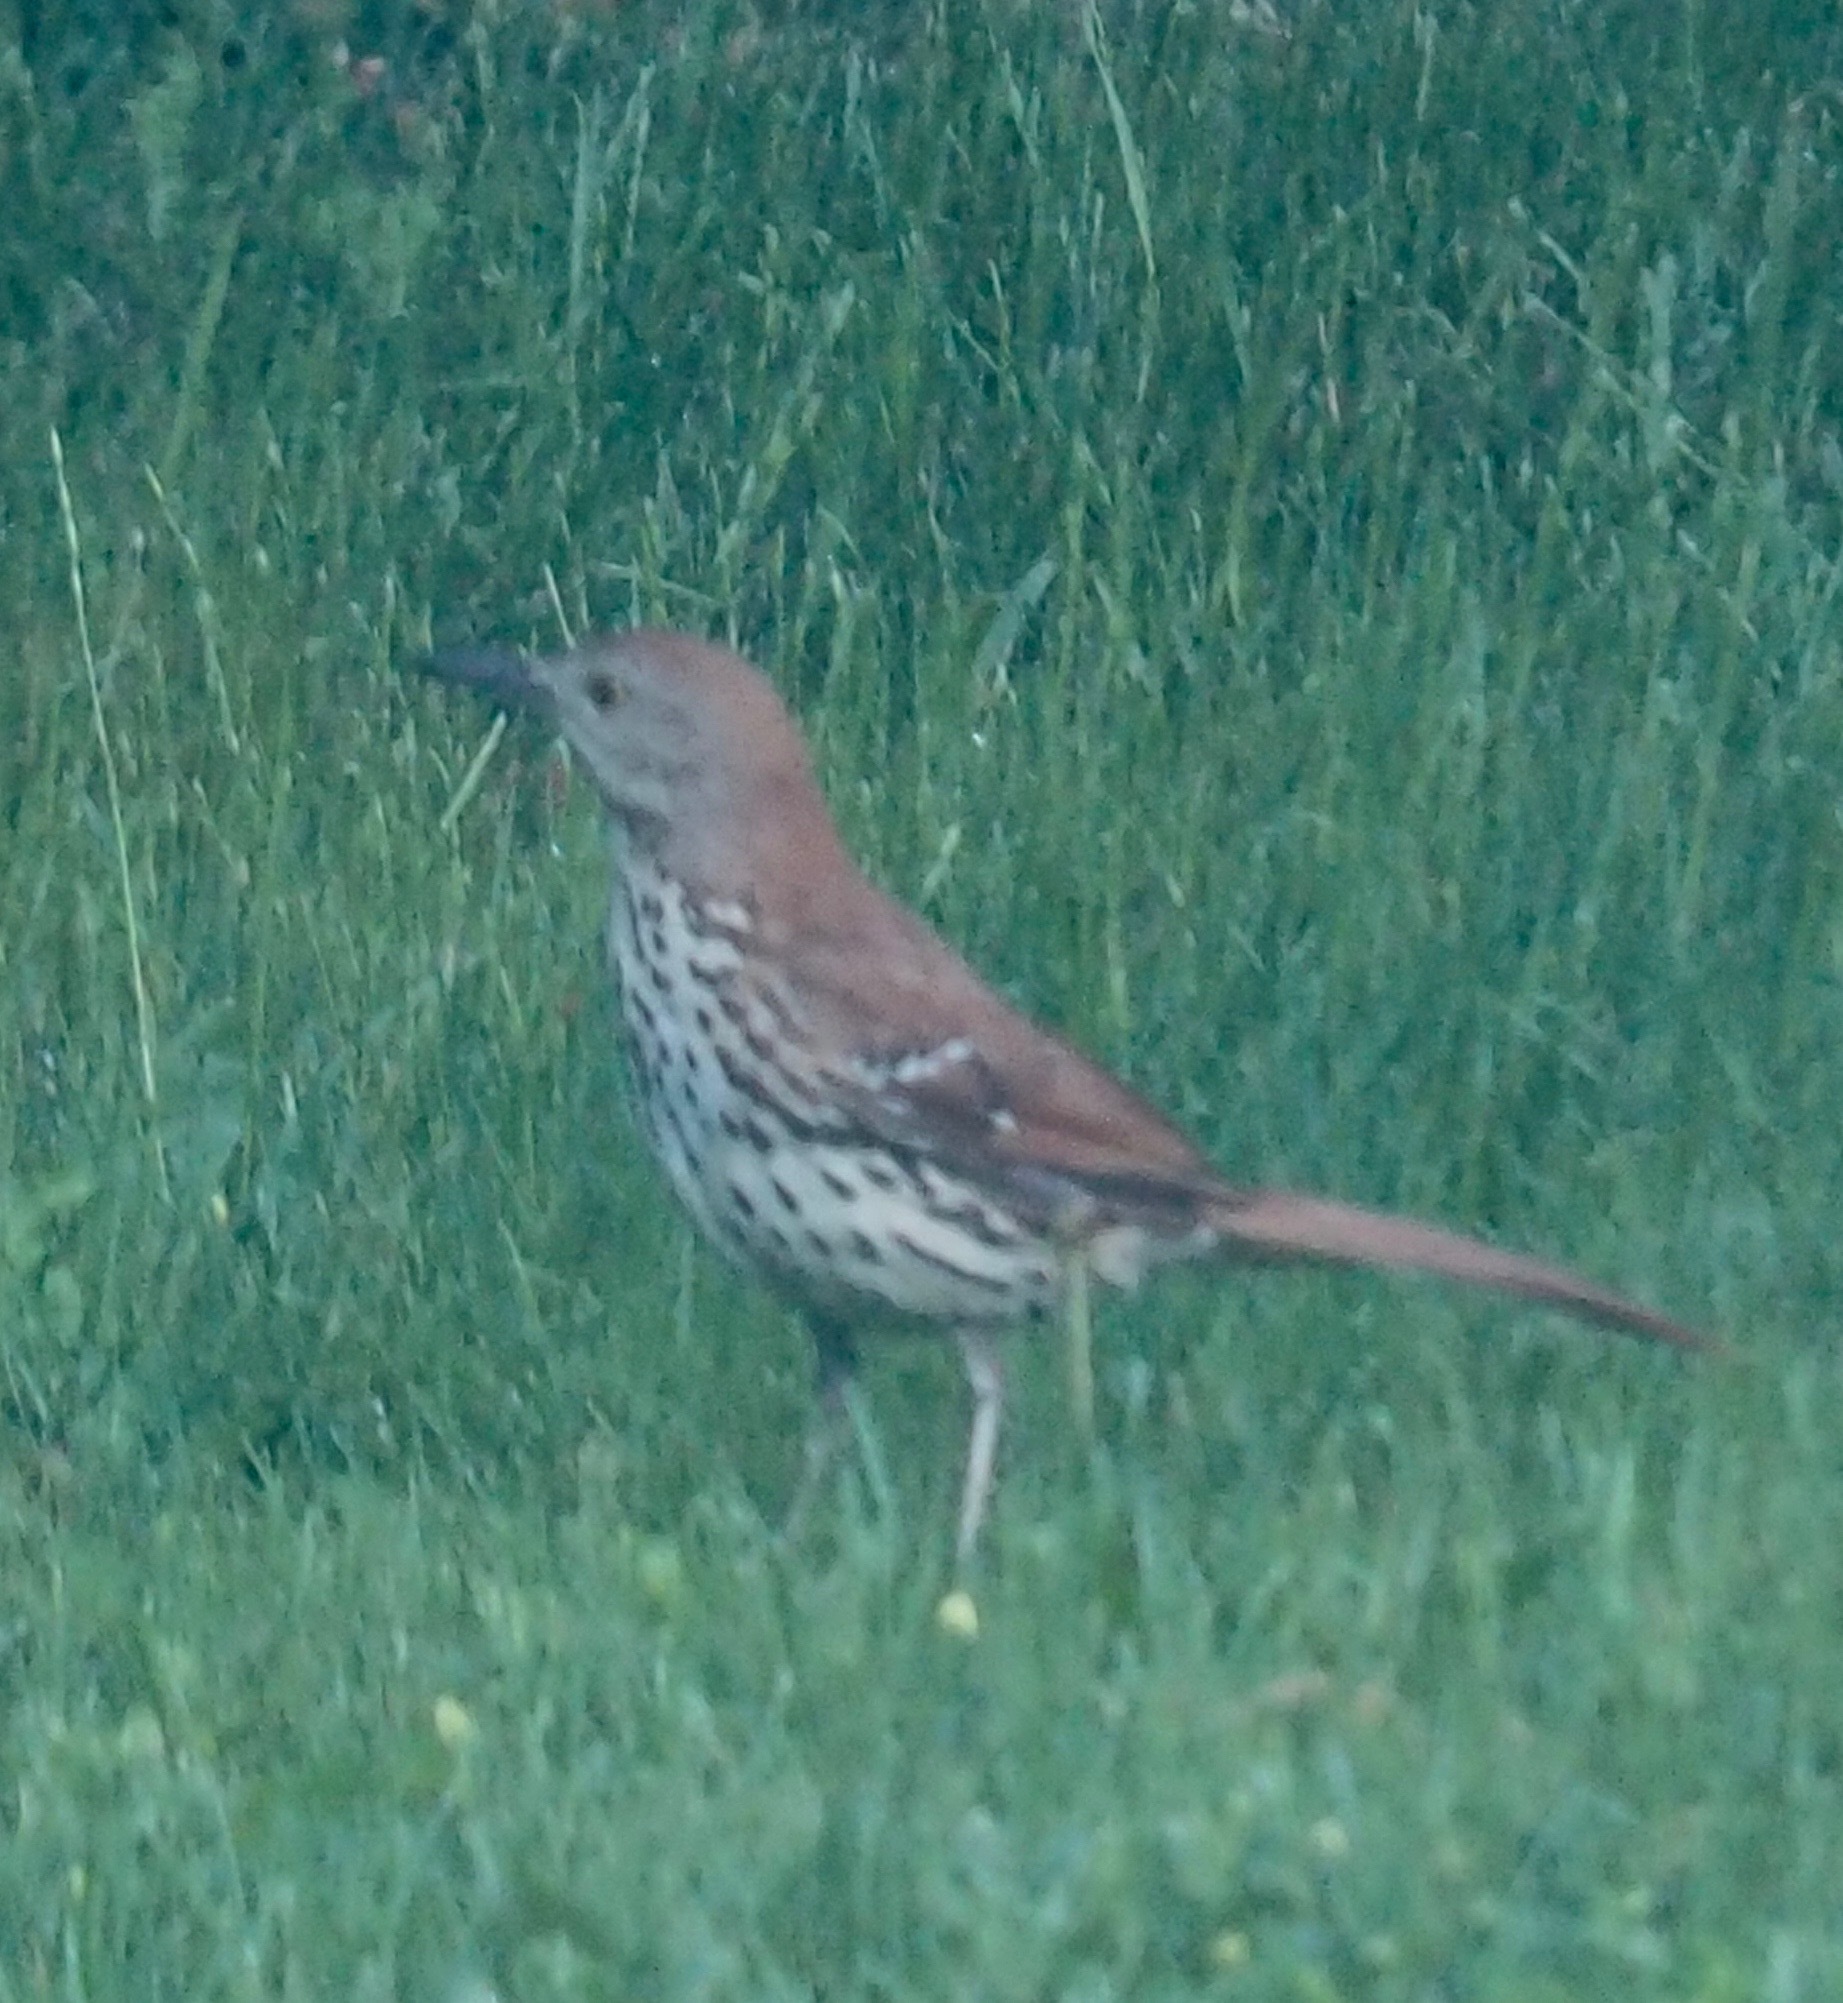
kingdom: Animalia
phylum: Chordata
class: Aves
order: Passeriformes
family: Mimidae
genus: Toxostoma
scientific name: Toxostoma rufum
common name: Brown thrasher
